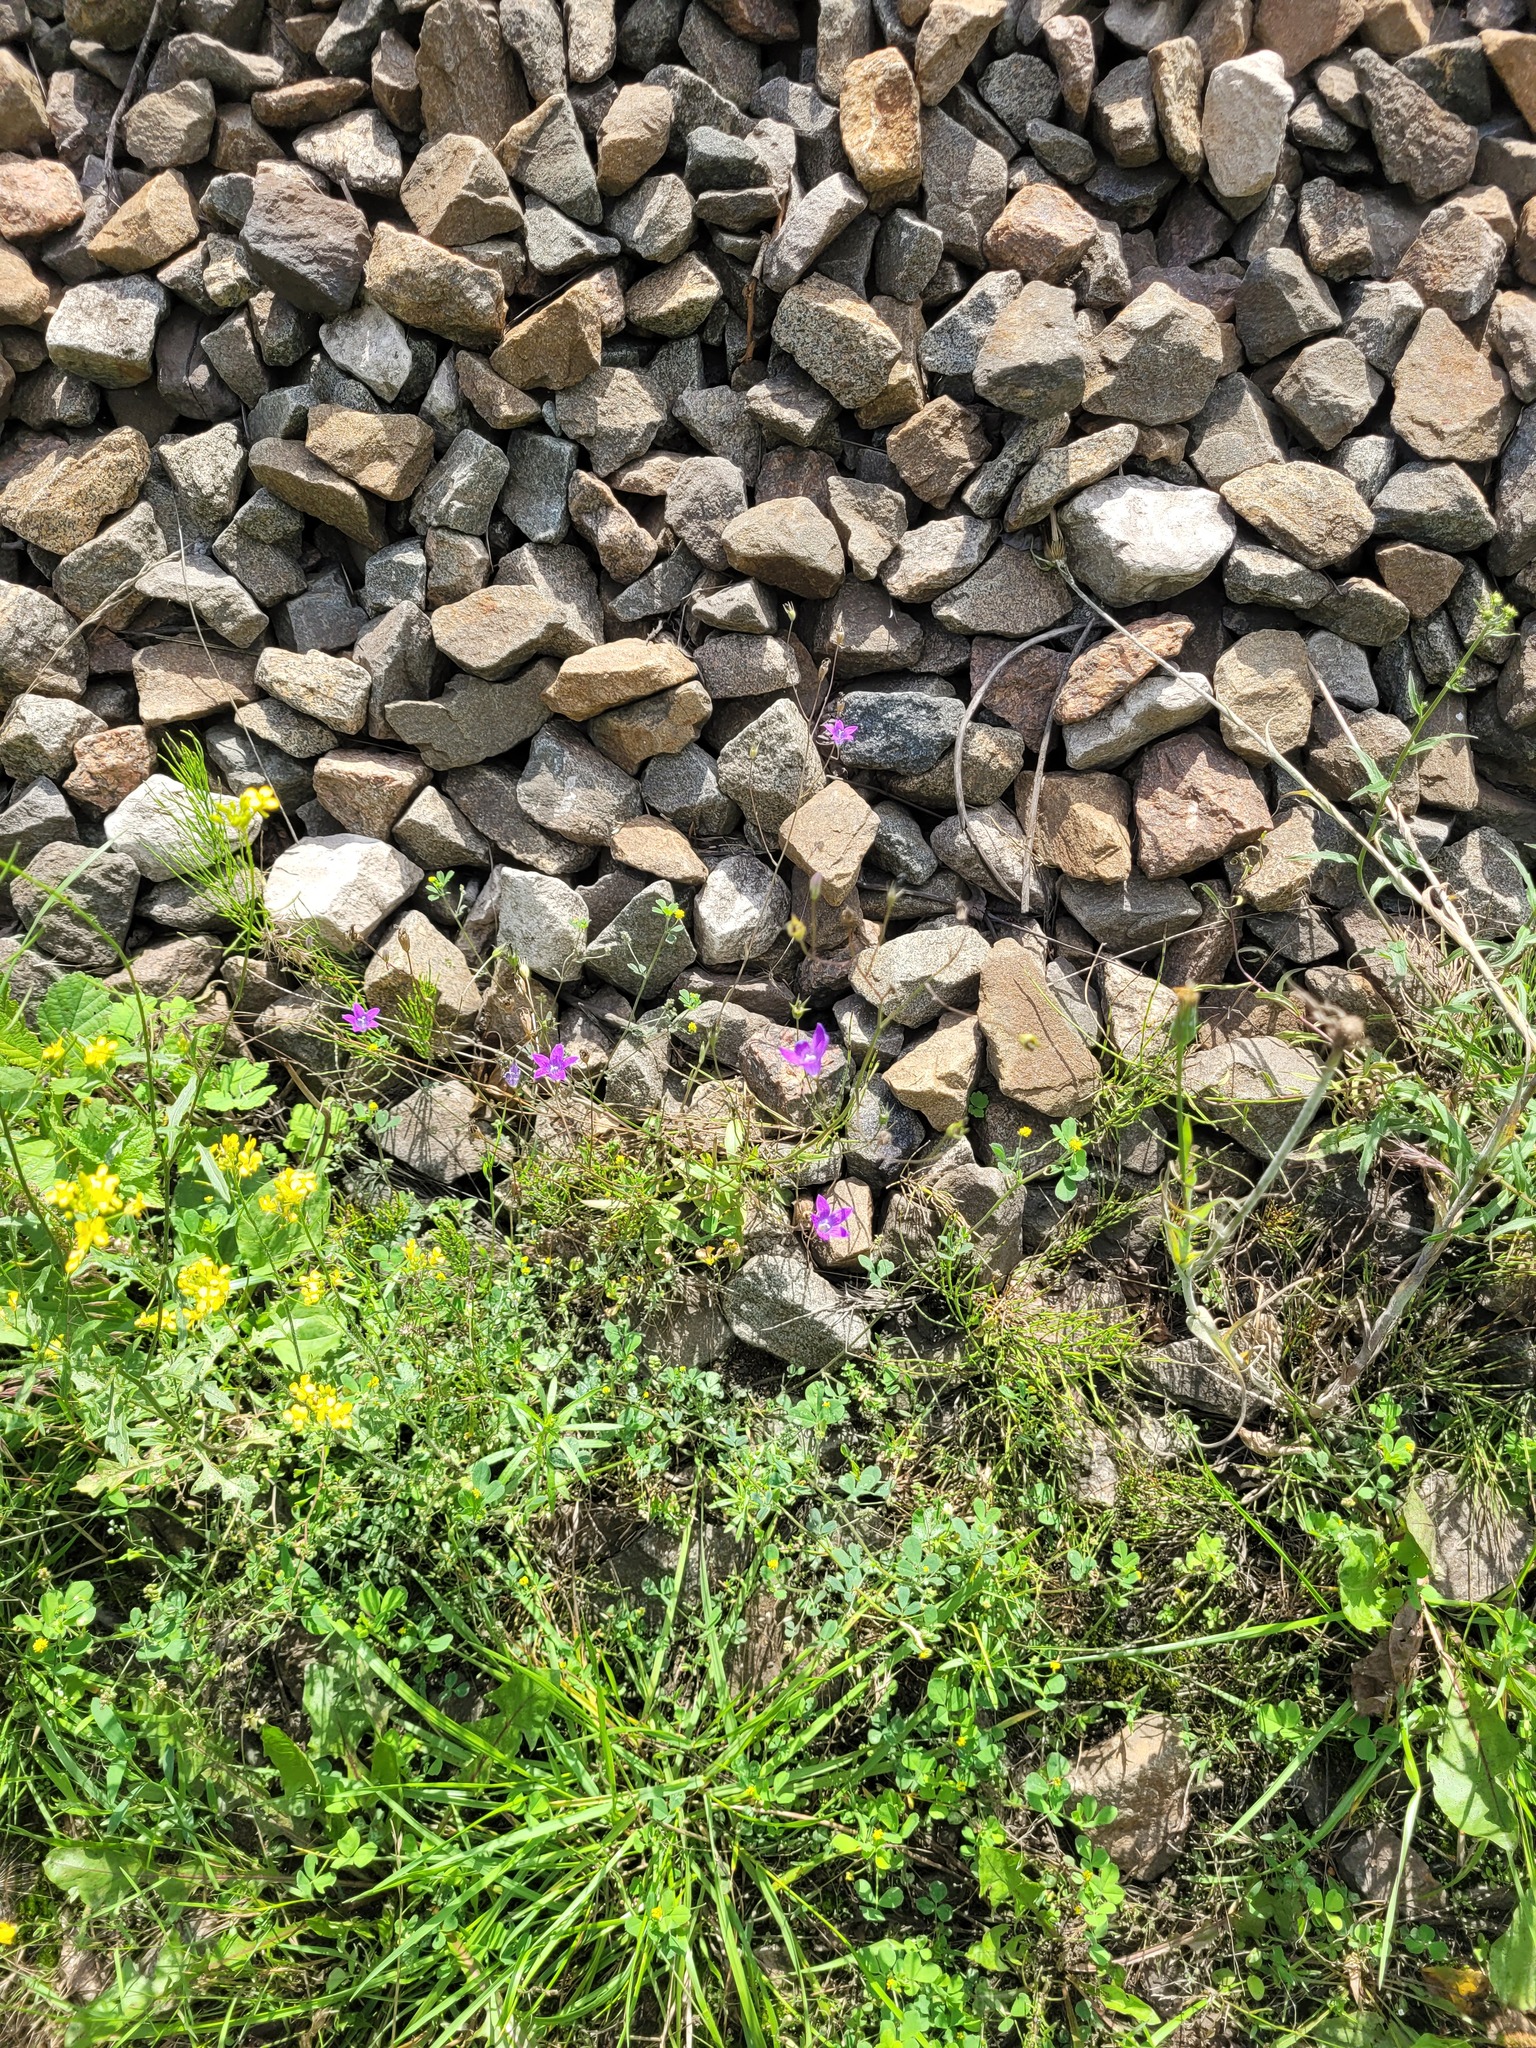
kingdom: Plantae
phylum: Tracheophyta
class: Magnoliopsida
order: Asterales
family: Campanulaceae
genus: Campanula
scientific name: Campanula patula
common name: Spreading bellflower
